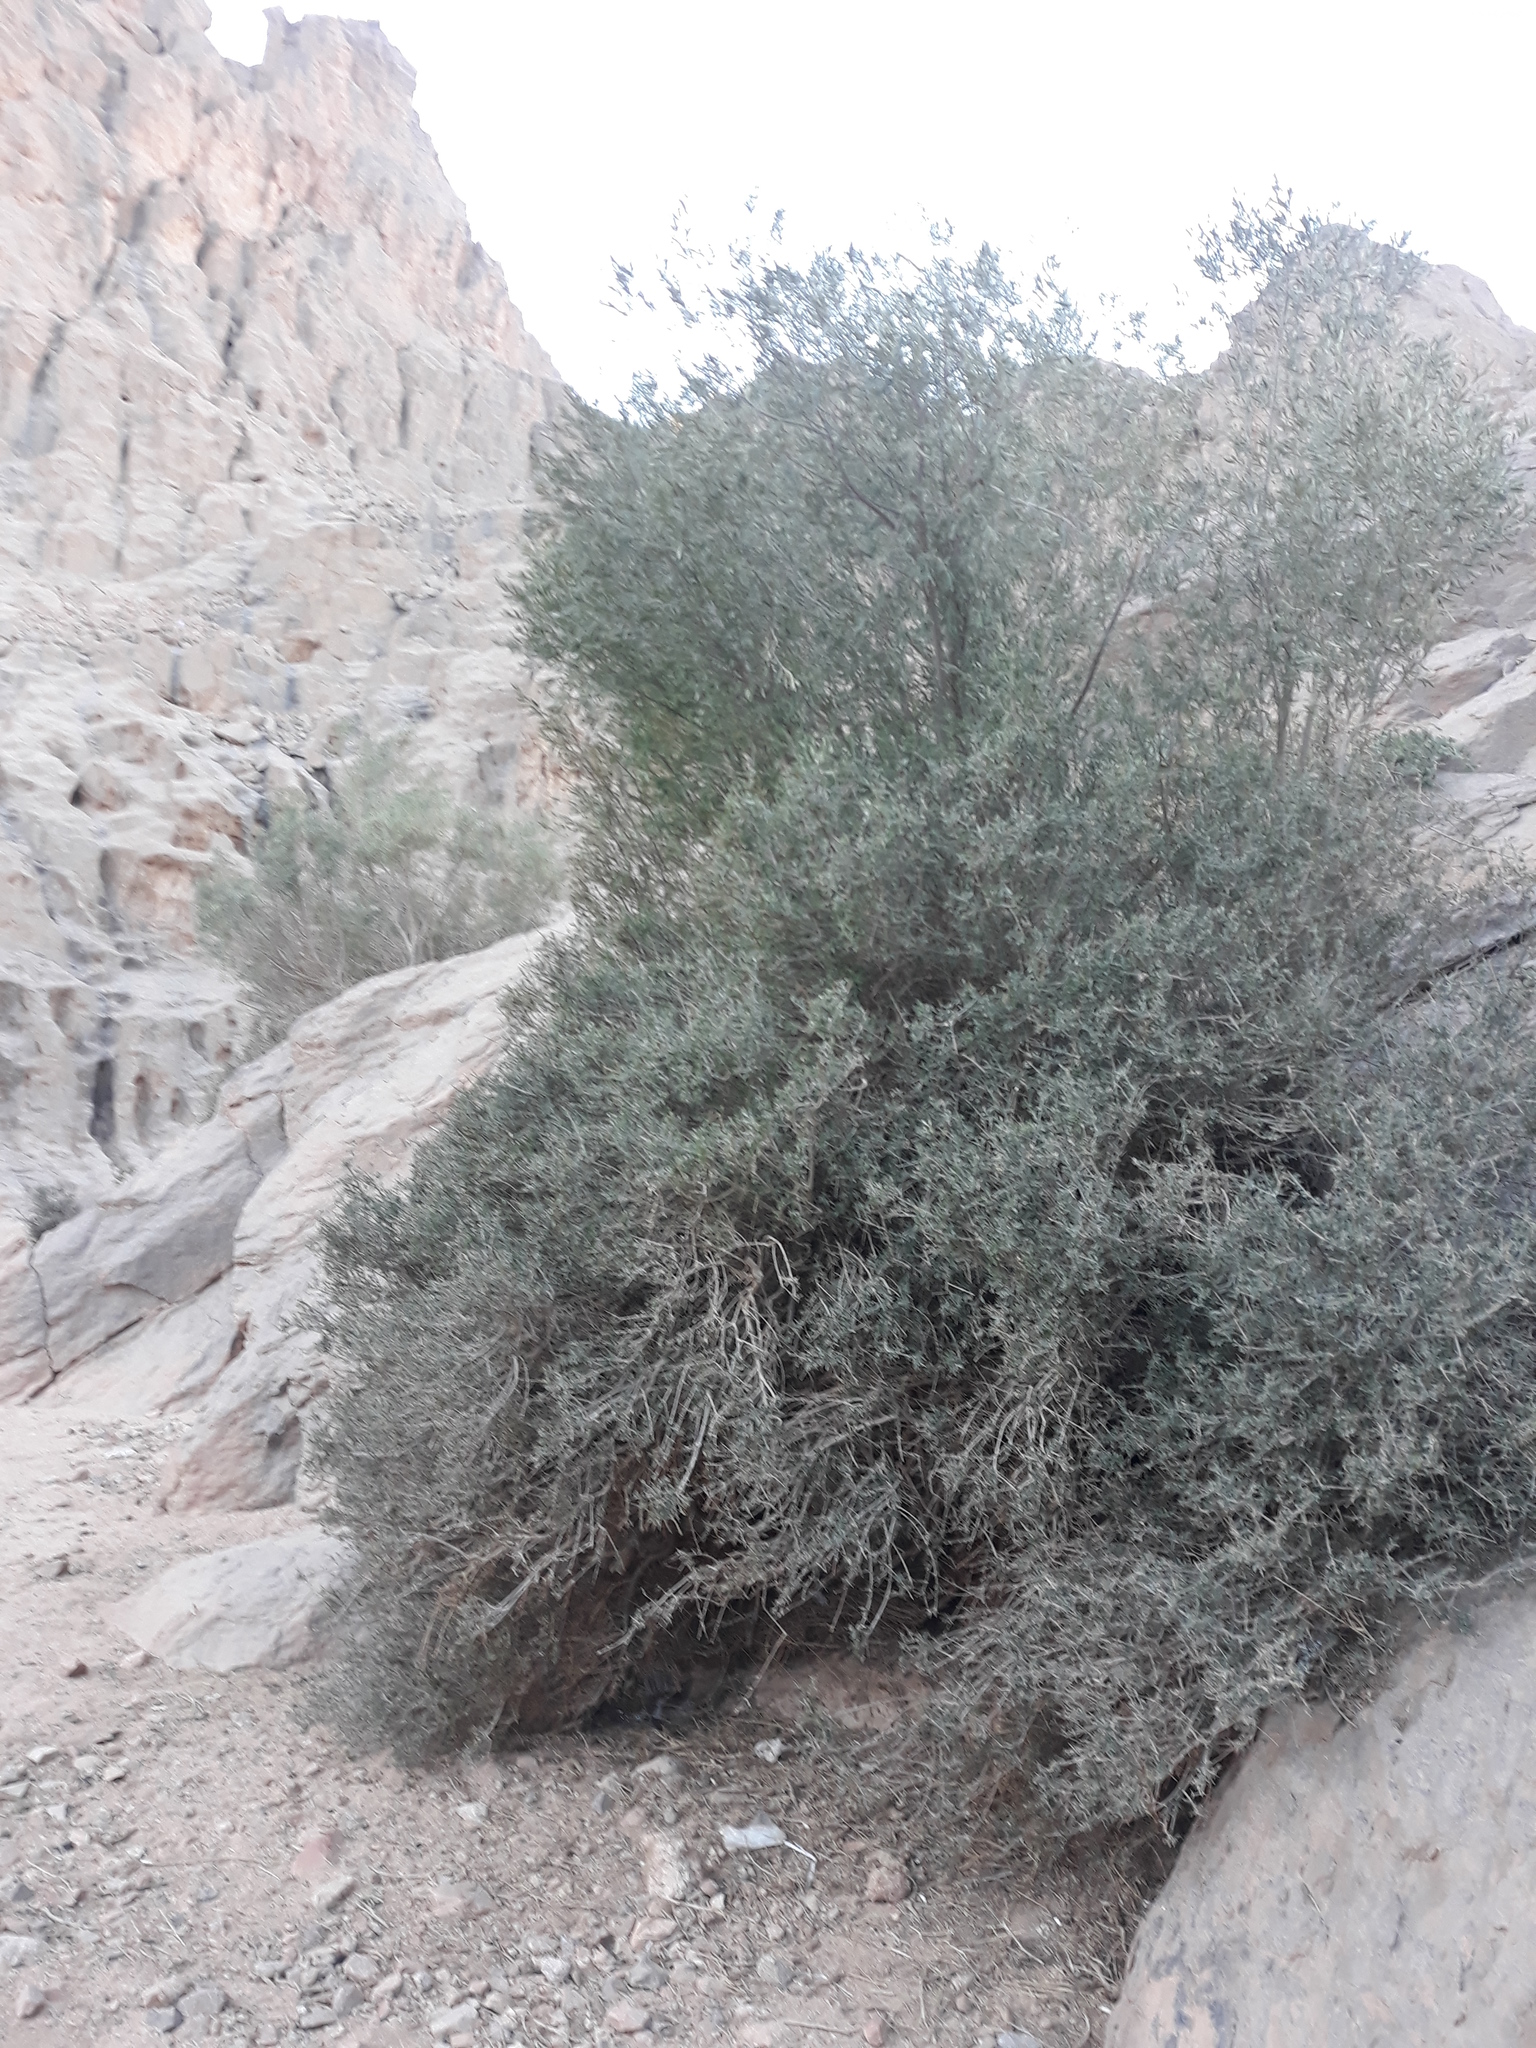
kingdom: Plantae
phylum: Tracheophyta
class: Magnoliopsida
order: Lamiales
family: Oleaceae
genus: Olea
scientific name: Olea europaea
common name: Olive
